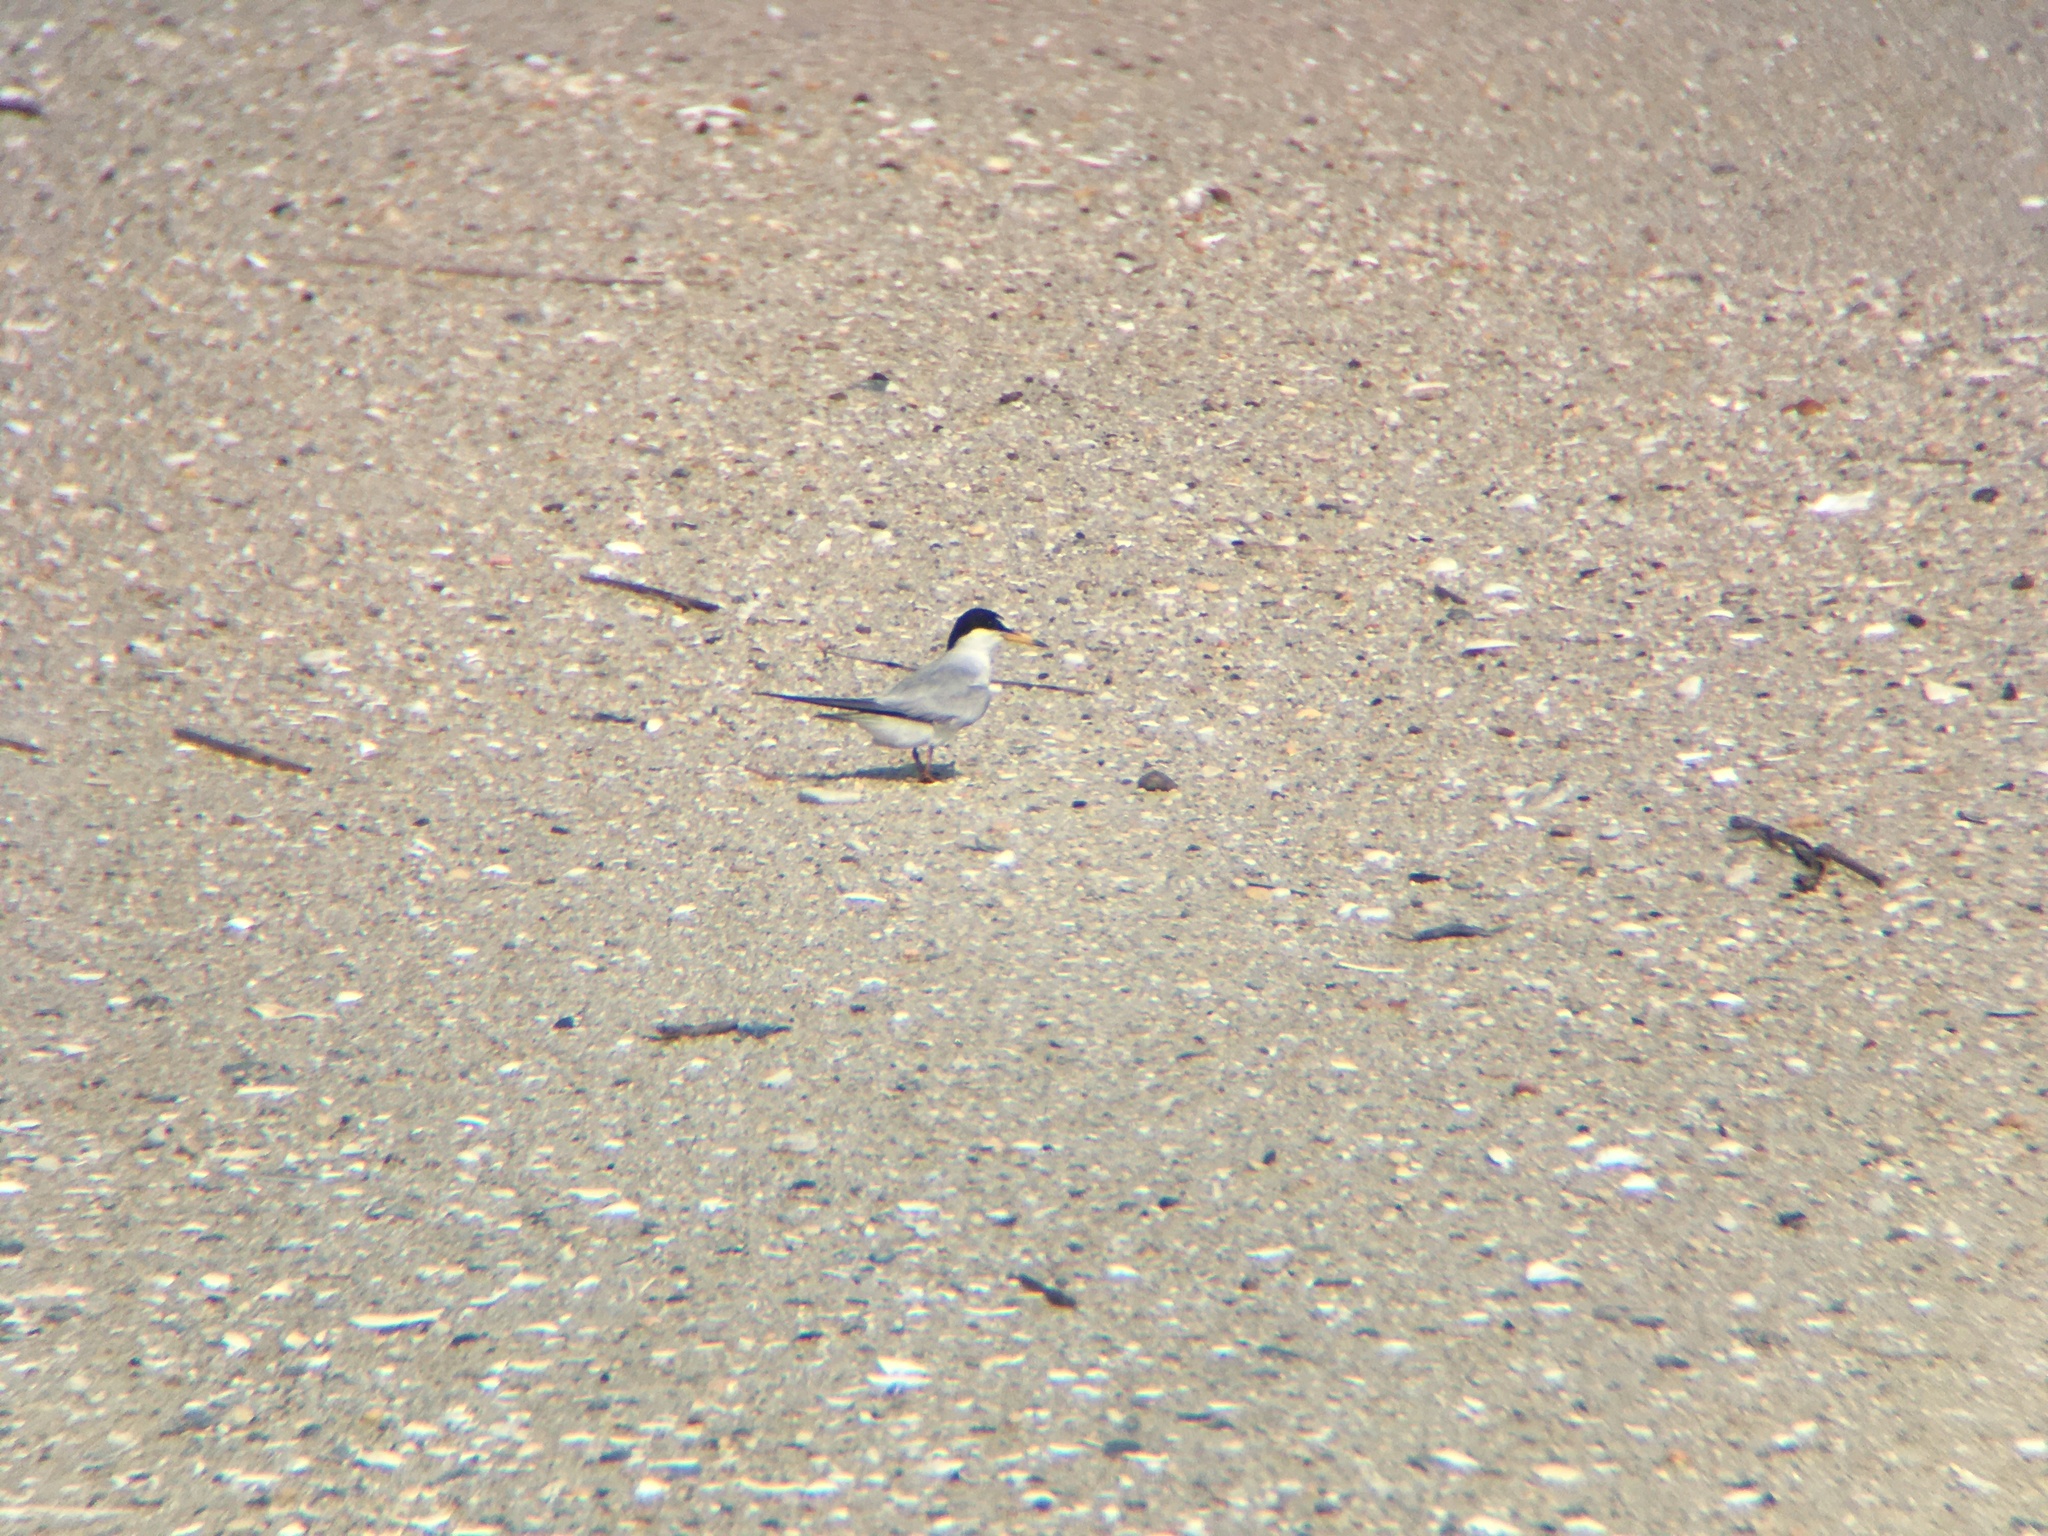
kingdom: Animalia
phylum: Chordata
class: Aves
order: Charadriiformes
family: Laridae
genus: Sternula
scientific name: Sternula antillarum
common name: Least tern
